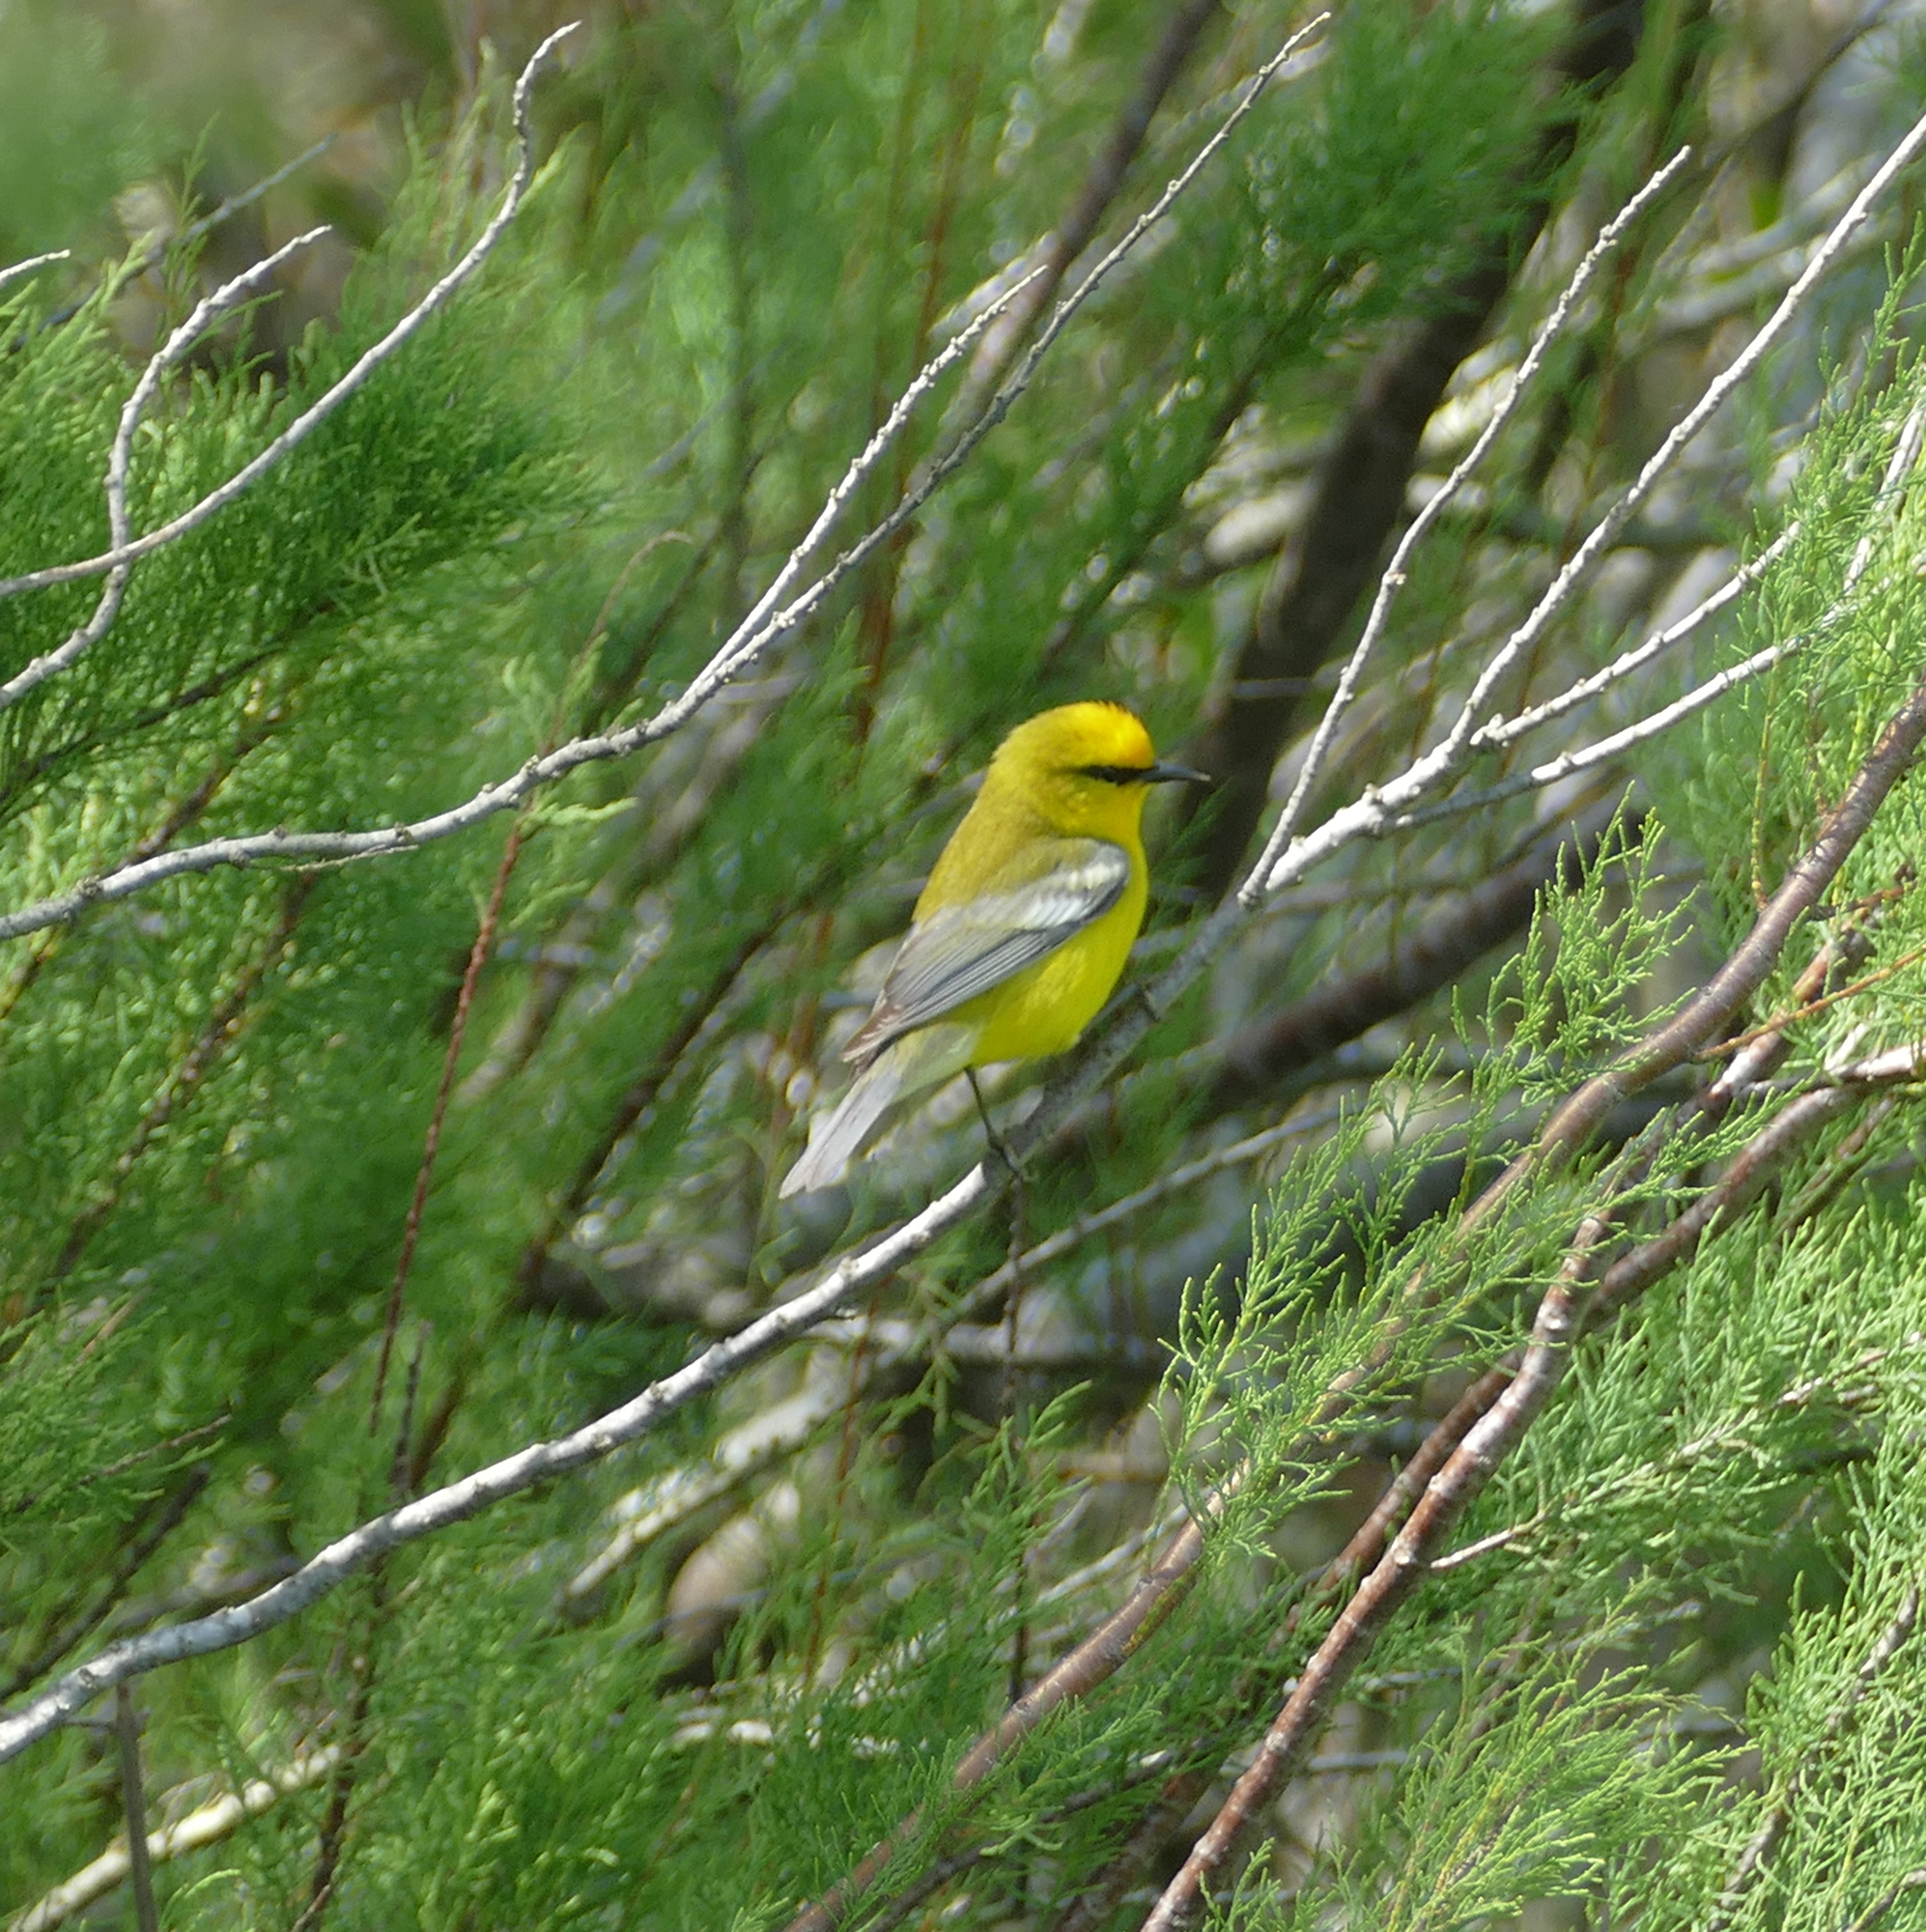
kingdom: Animalia
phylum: Chordata
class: Aves
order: Passeriformes
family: Parulidae
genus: Vermivora
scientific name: Vermivora cyanoptera
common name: Blue-winged warbler
